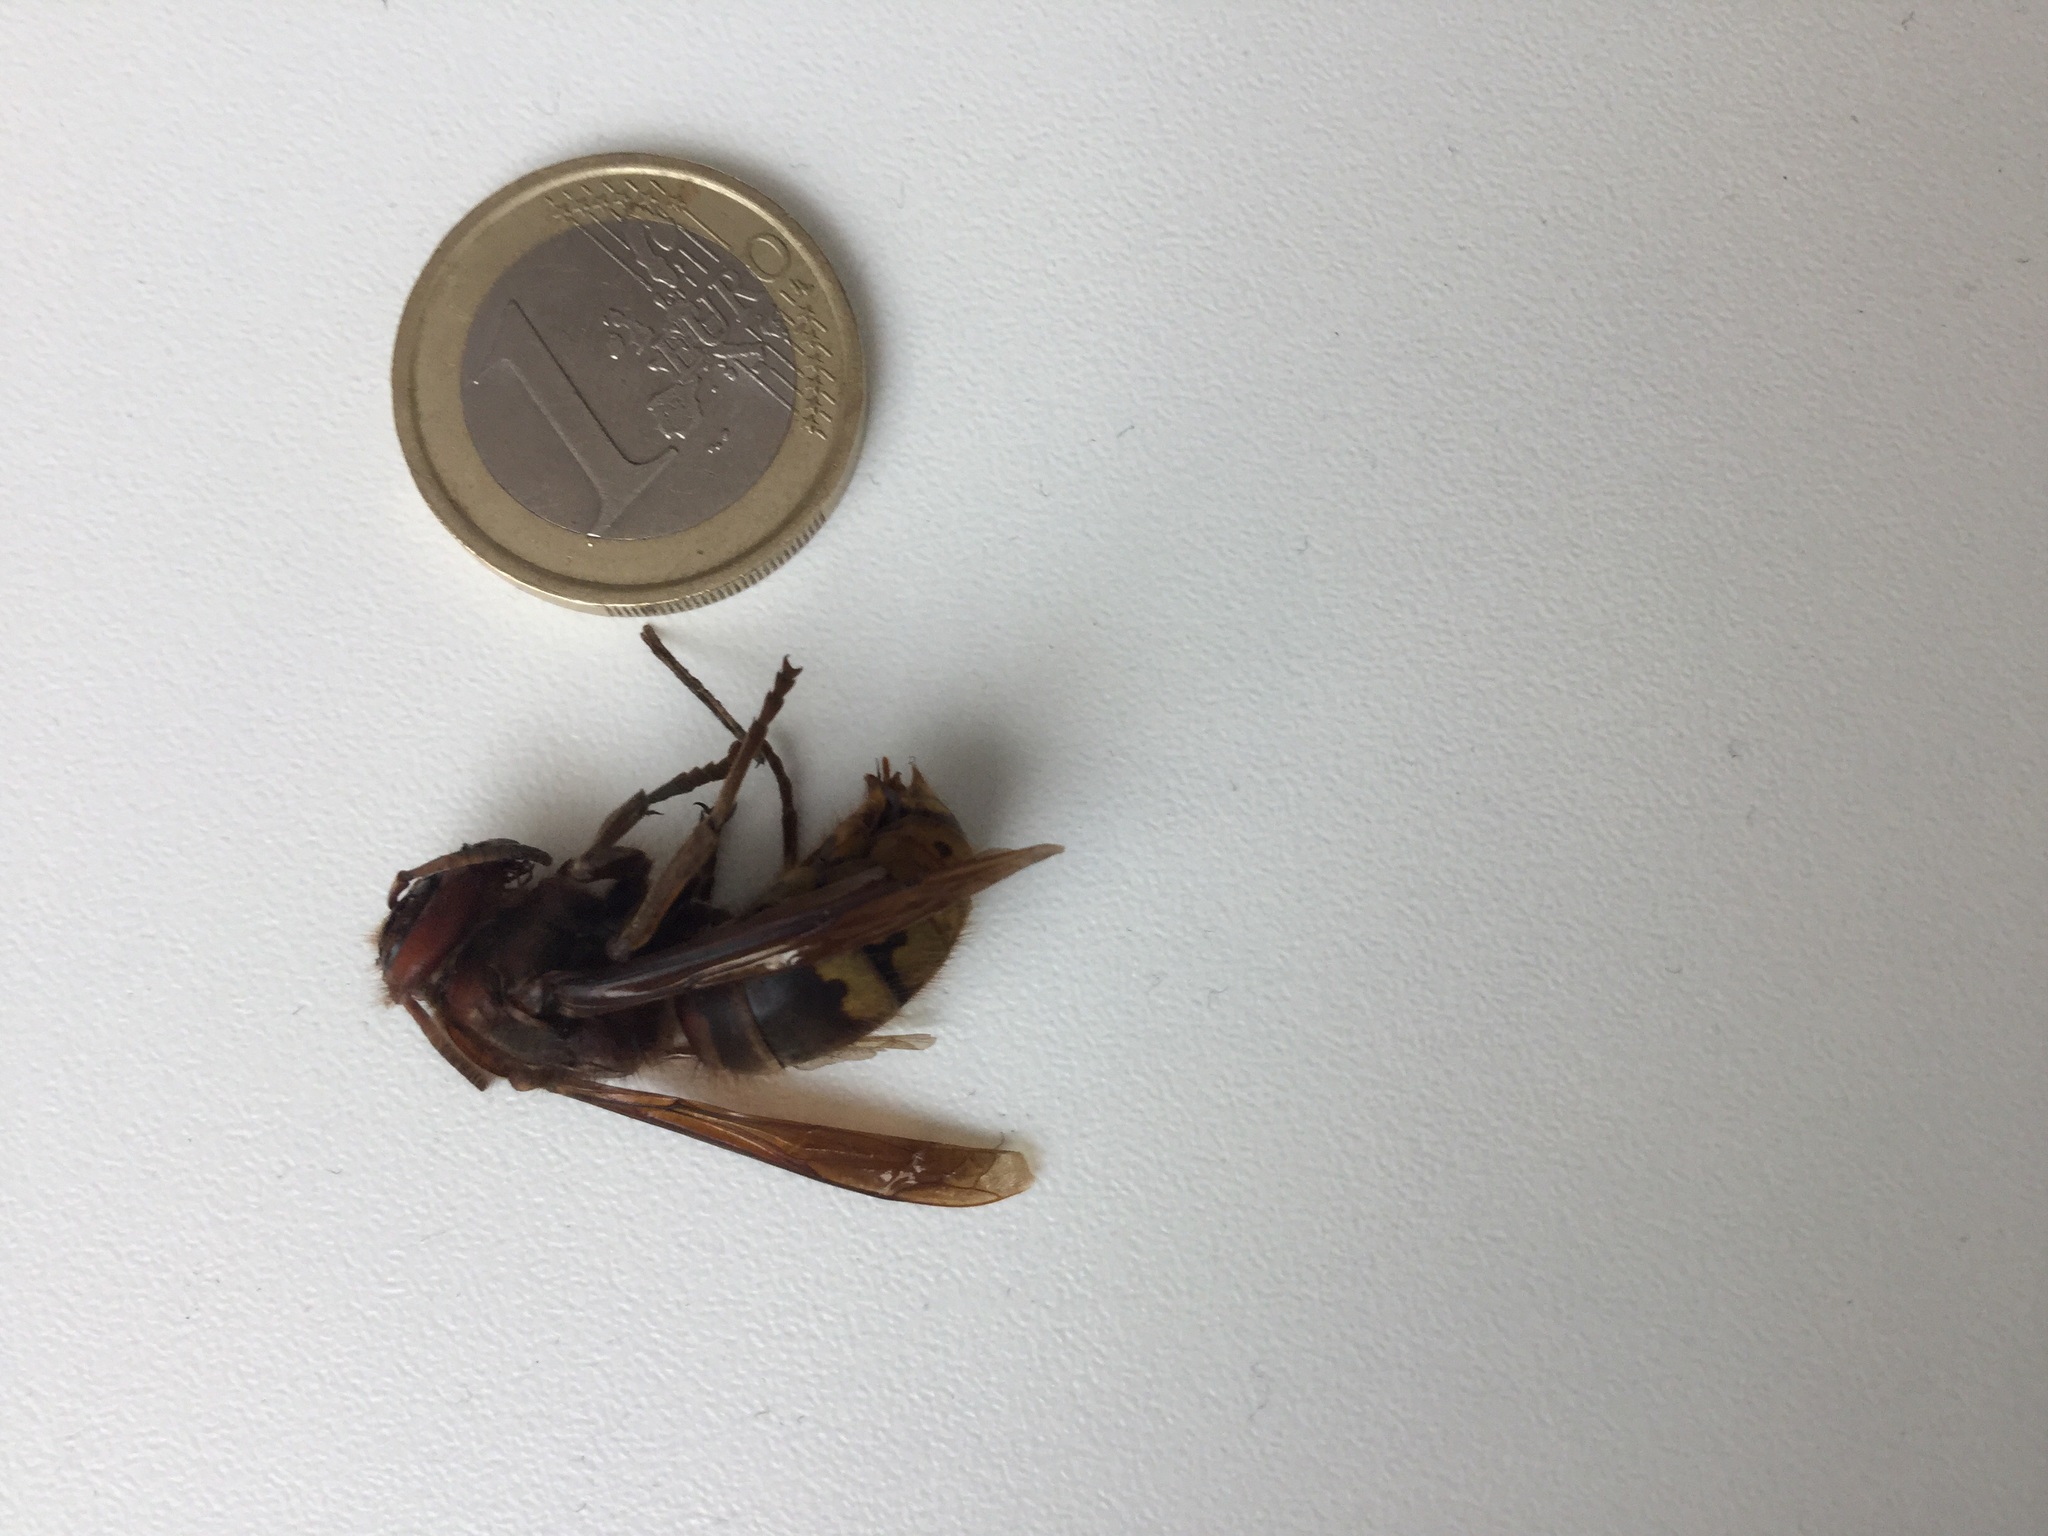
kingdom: Animalia
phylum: Arthropoda
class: Insecta
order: Hymenoptera
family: Vespidae
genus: Vespa
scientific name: Vespa crabro
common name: Hornet
